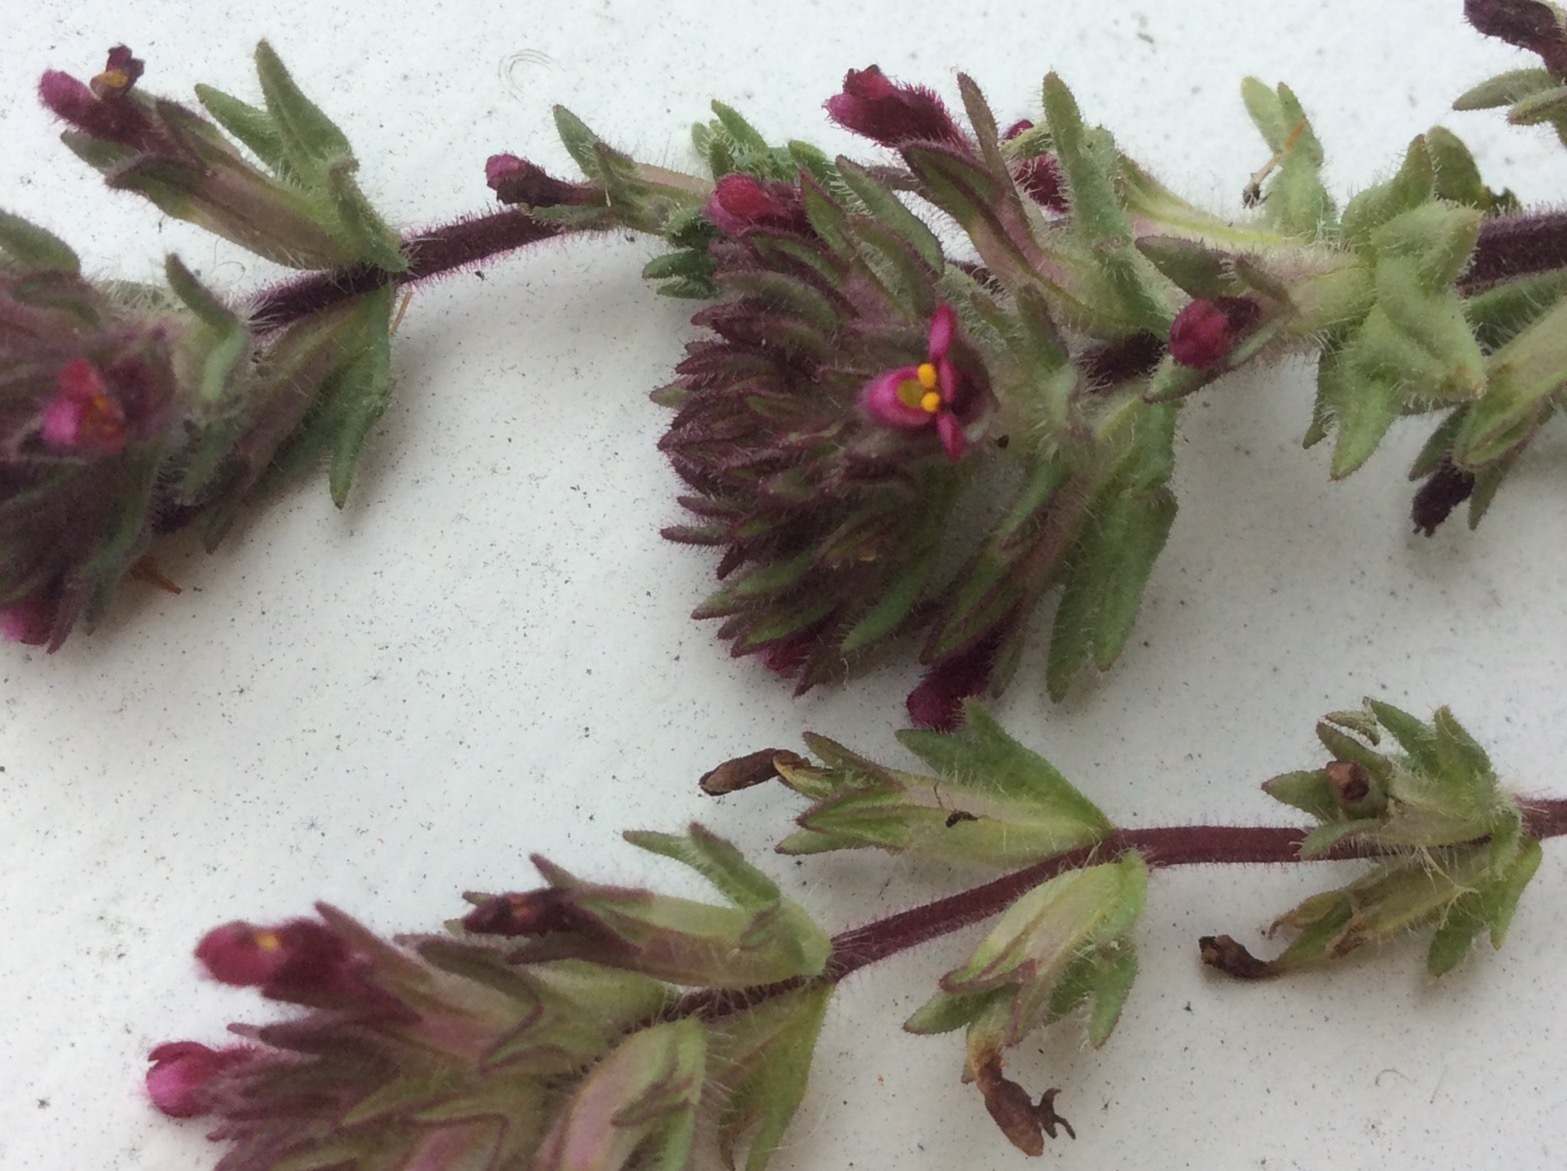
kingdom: Plantae
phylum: Tracheophyta
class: Magnoliopsida
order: Lamiales
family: Orobanchaceae
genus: Parentucellia
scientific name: Parentucellia latifolia
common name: Broadleaf glandweed
